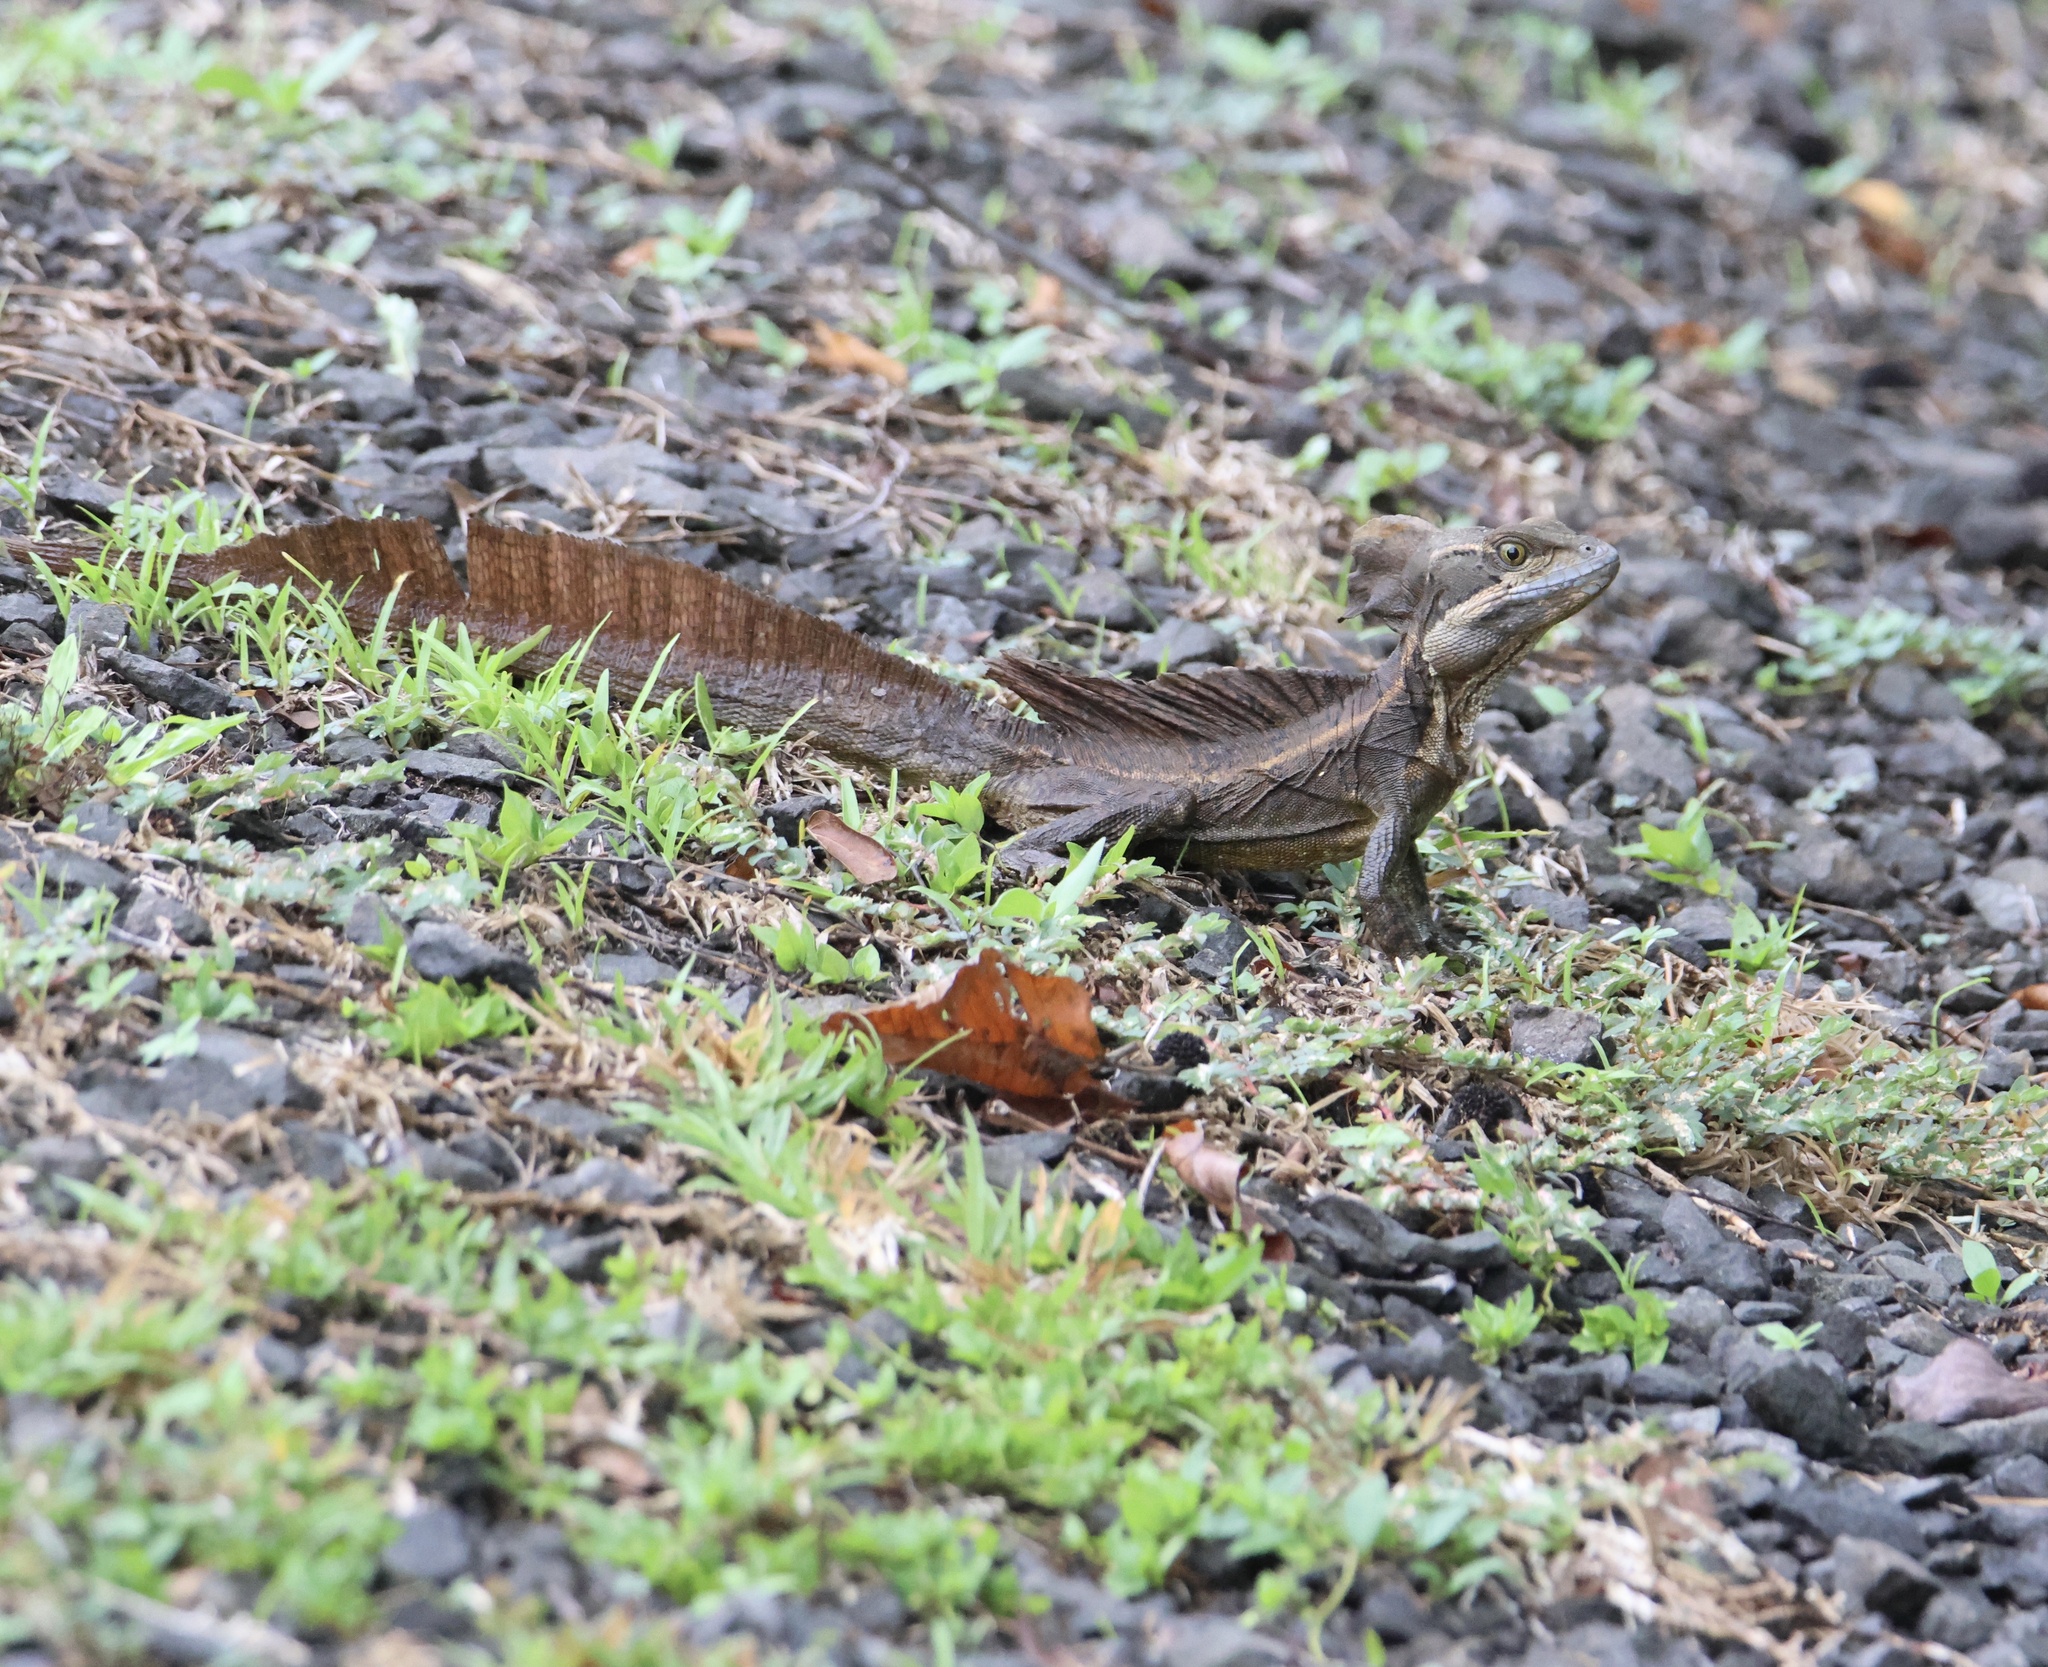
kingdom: Animalia
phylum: Chordata
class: Squamata
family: Corytophanidae
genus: Basiliscus
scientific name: Basiliscus basiliscus
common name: Common basilisk
